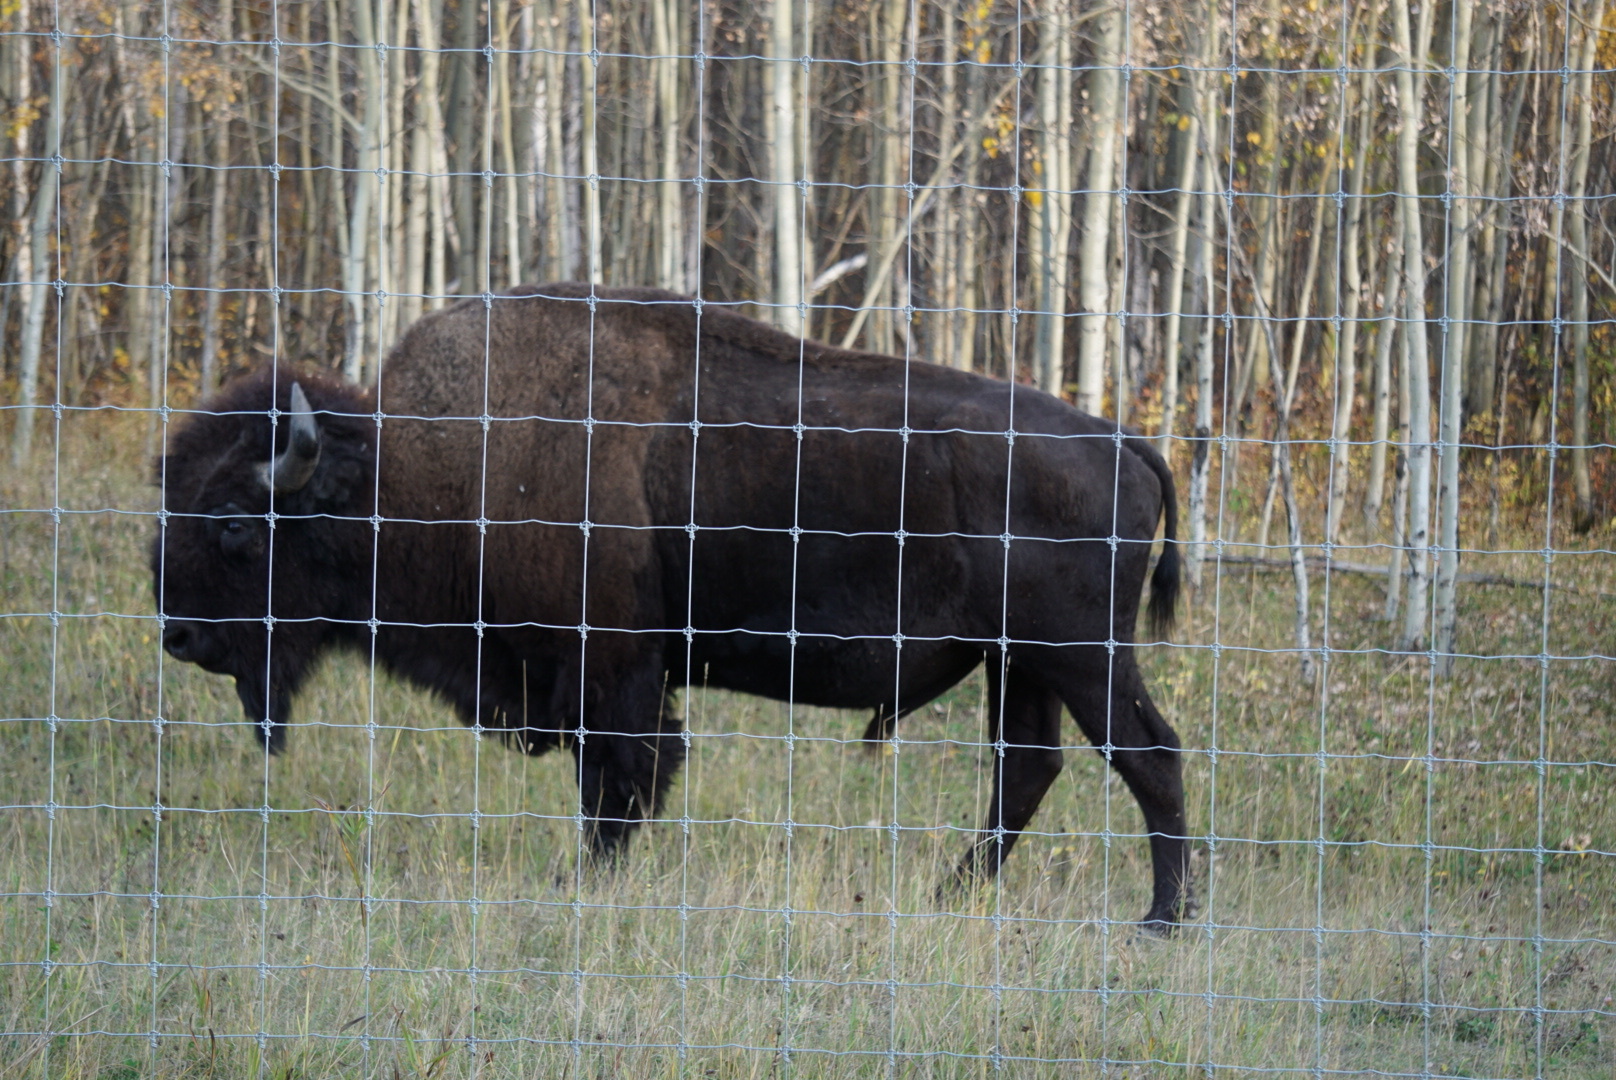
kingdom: Animalia
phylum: Chordata
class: Mammalia
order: Artiodactyla
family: Bovidae
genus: Bison
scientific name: Bison bison
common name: American bison
